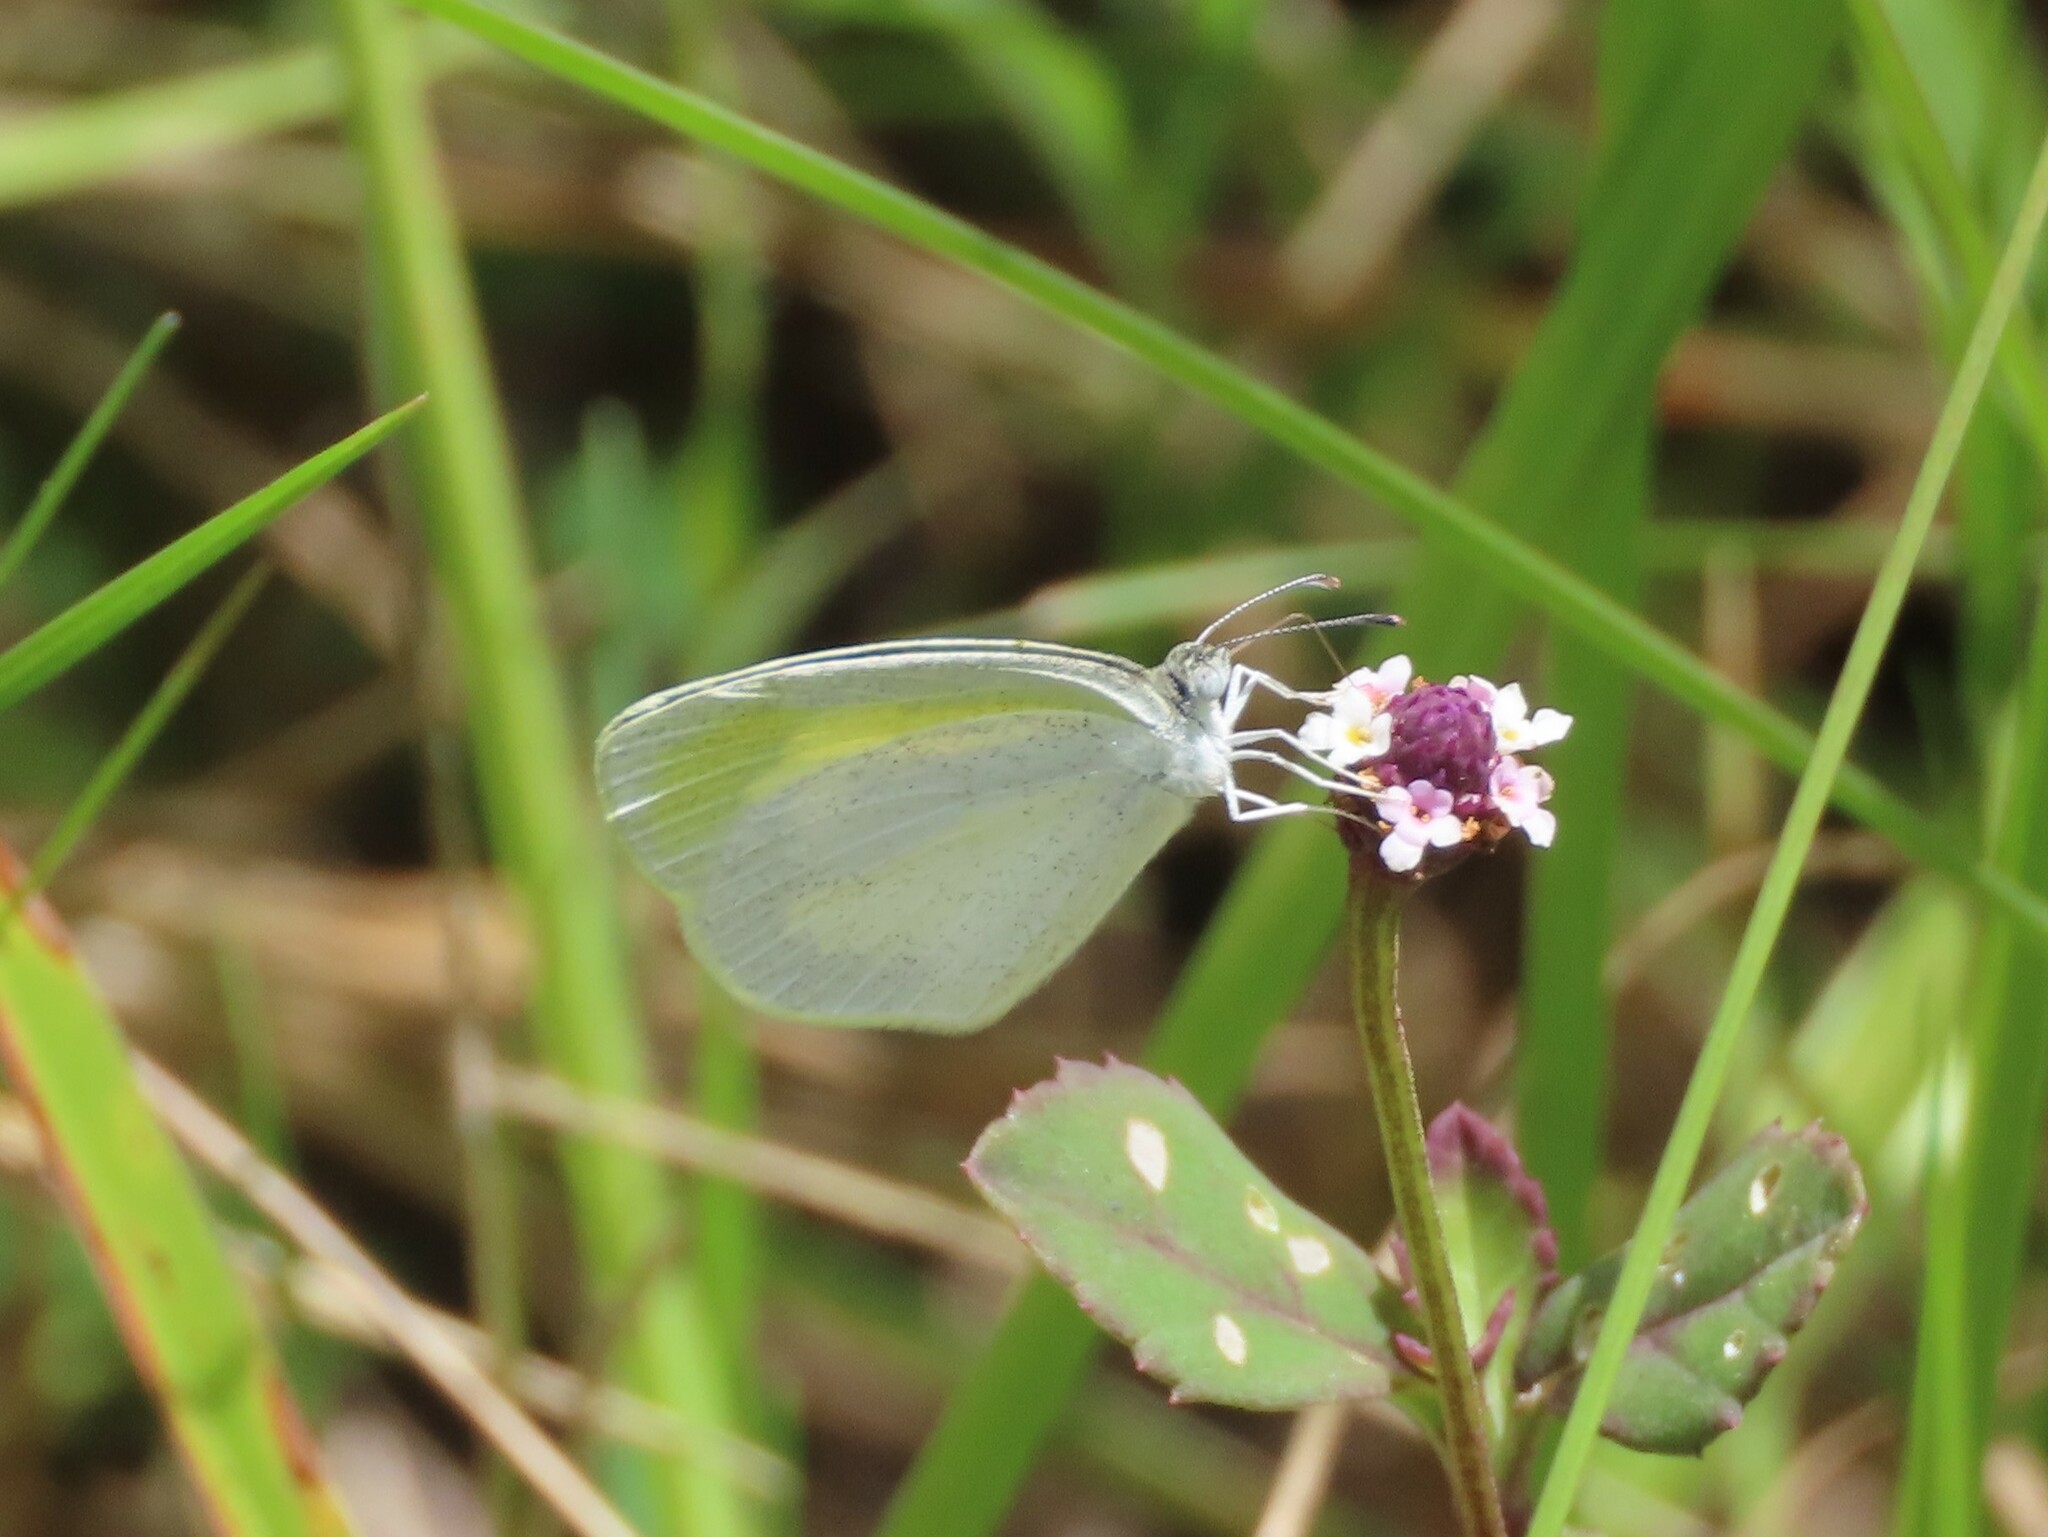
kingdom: Animalia
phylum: Arthropoda
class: Insecta
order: Lepidoptera
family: Pieridae
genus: Eurema
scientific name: Eurema daira
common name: Barred sulphur
